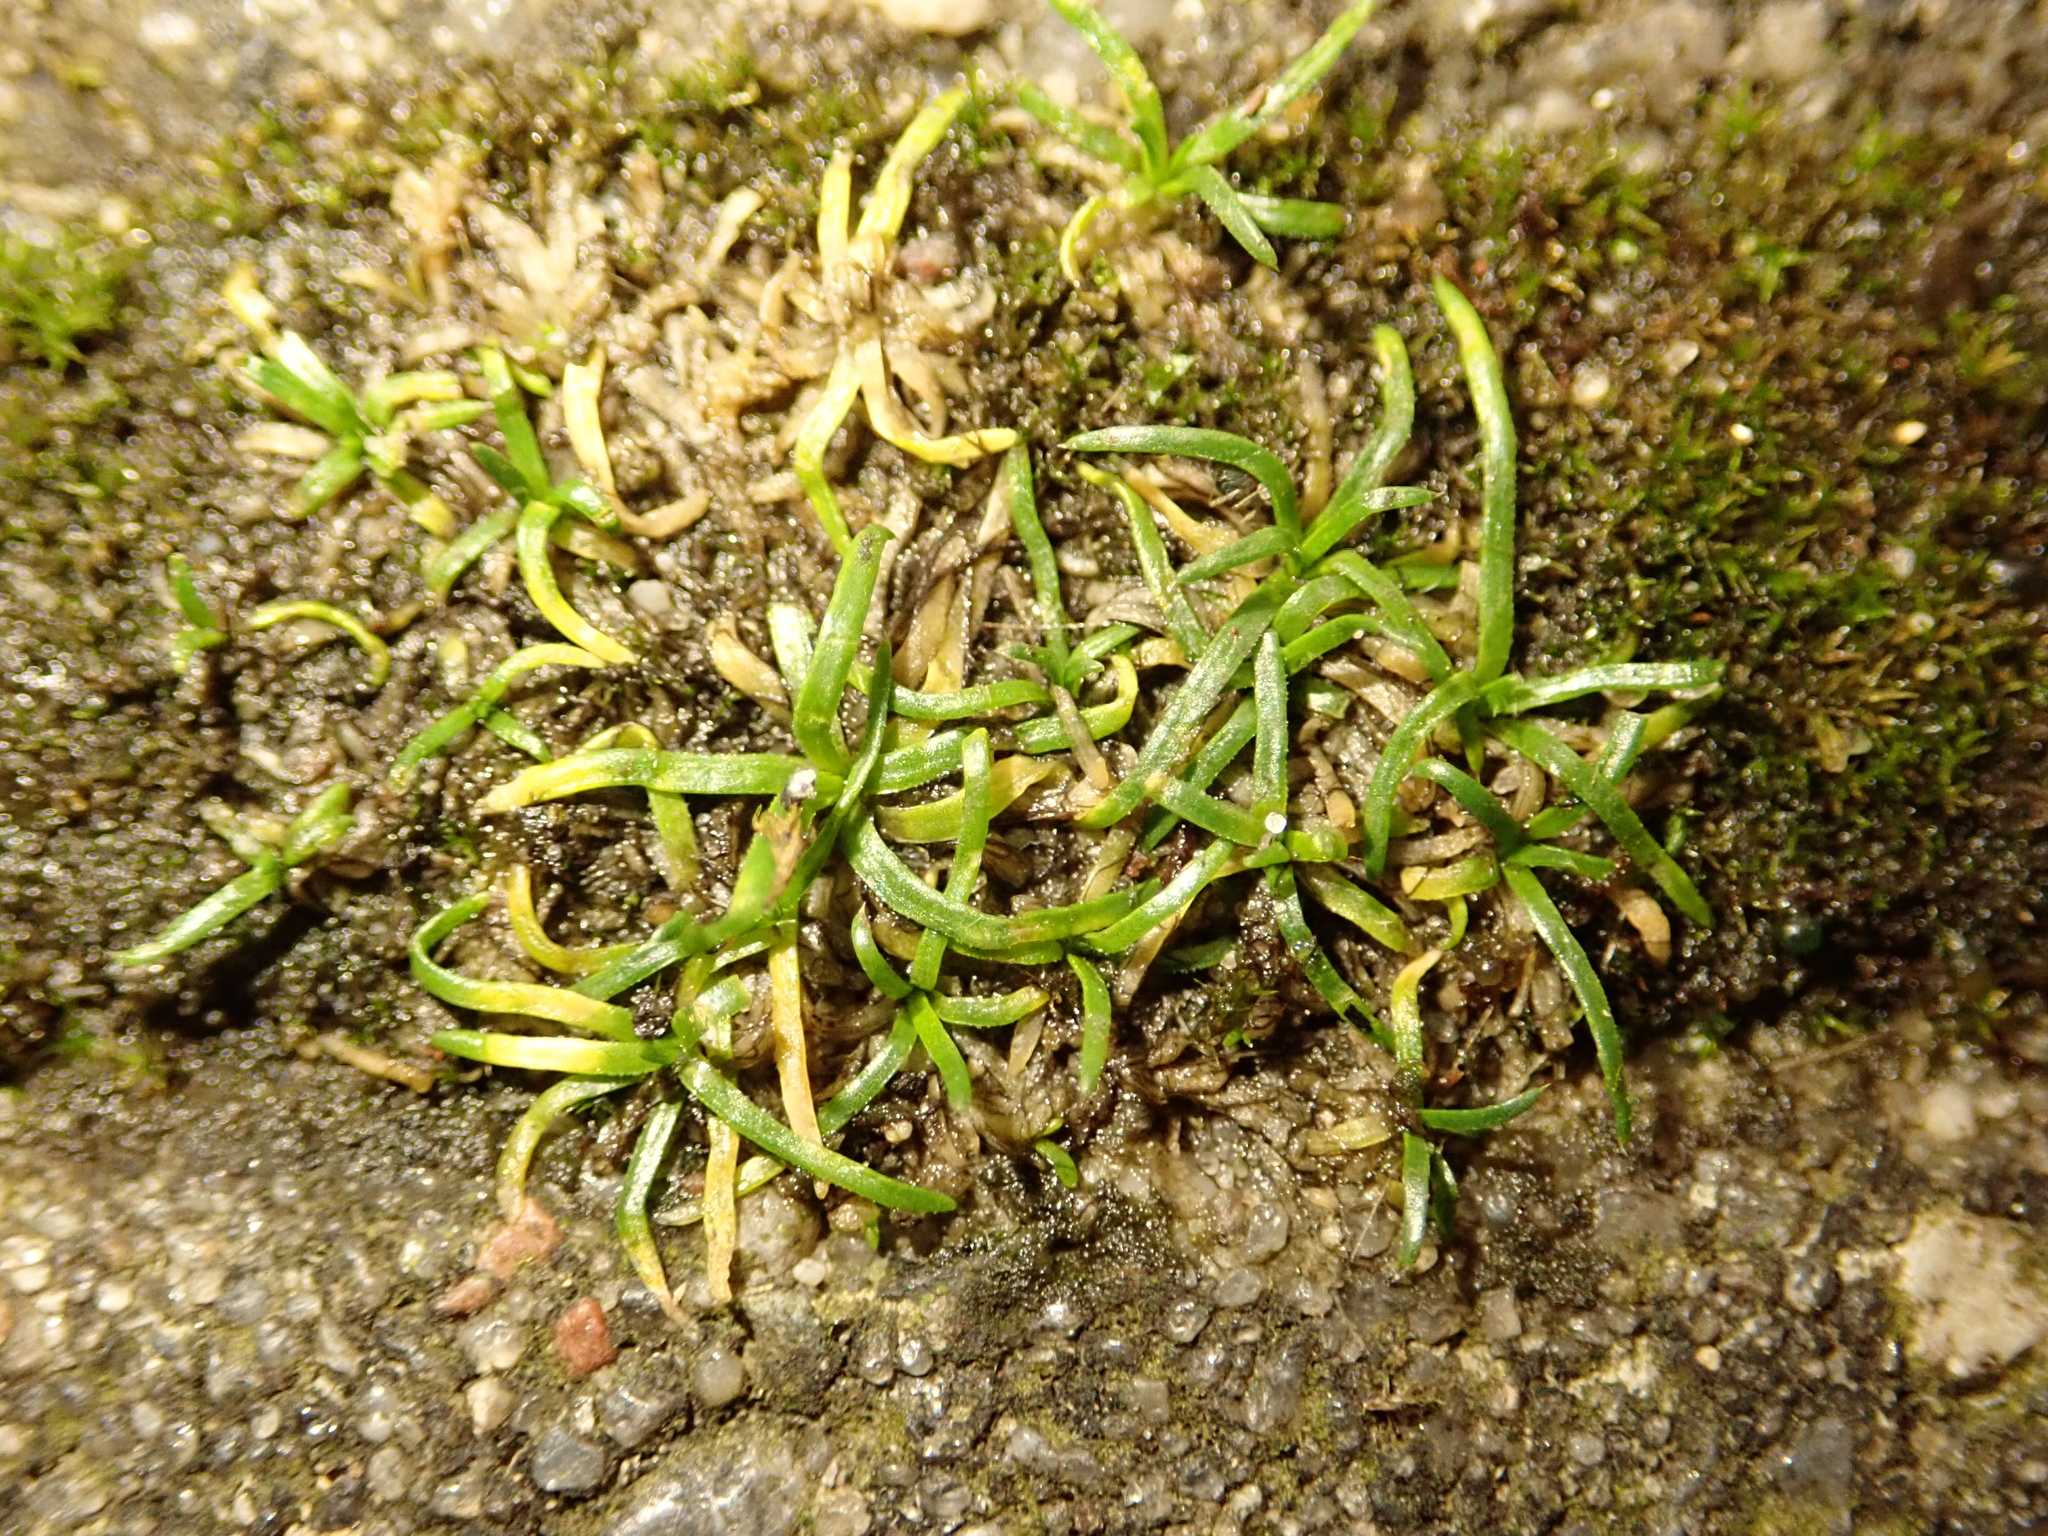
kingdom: Plantae
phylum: Tracheophyta
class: Magnoliopsida
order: Caryophyllales
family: Caryophyllaceae
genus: Sagina
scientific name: Sagina procumbens
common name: Procumbent pearlwort
